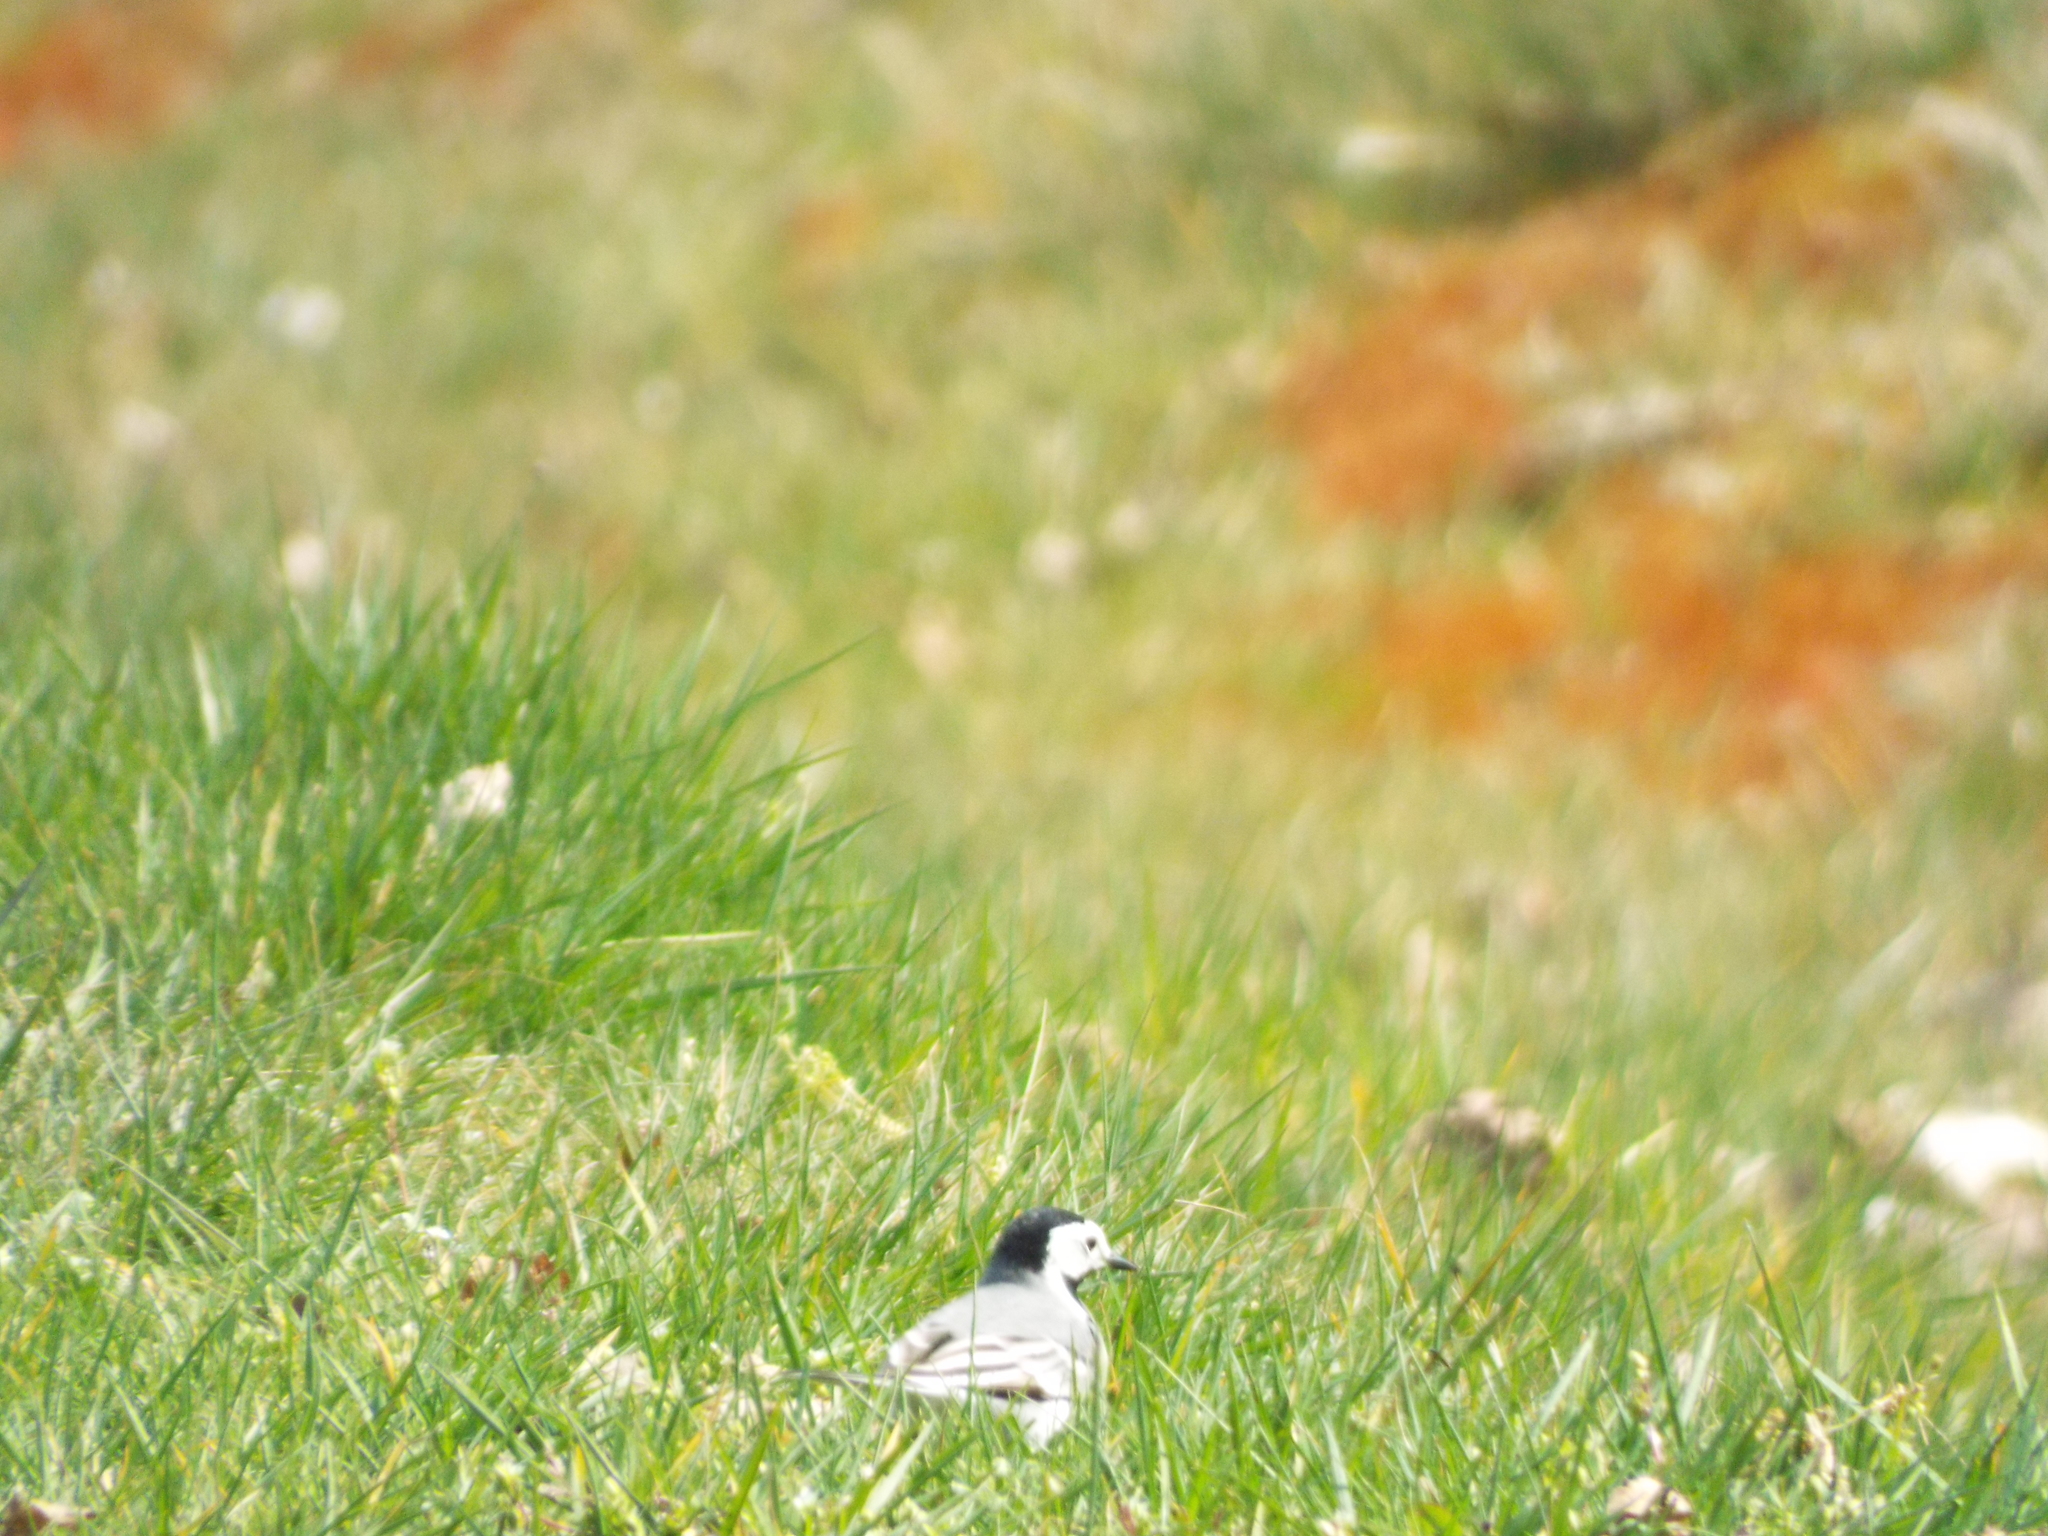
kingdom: Animalia
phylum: Chordata
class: Aves
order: Passeriformes
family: Motacillidae
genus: Motacilla
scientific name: Motacilla alba
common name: White wagtail
